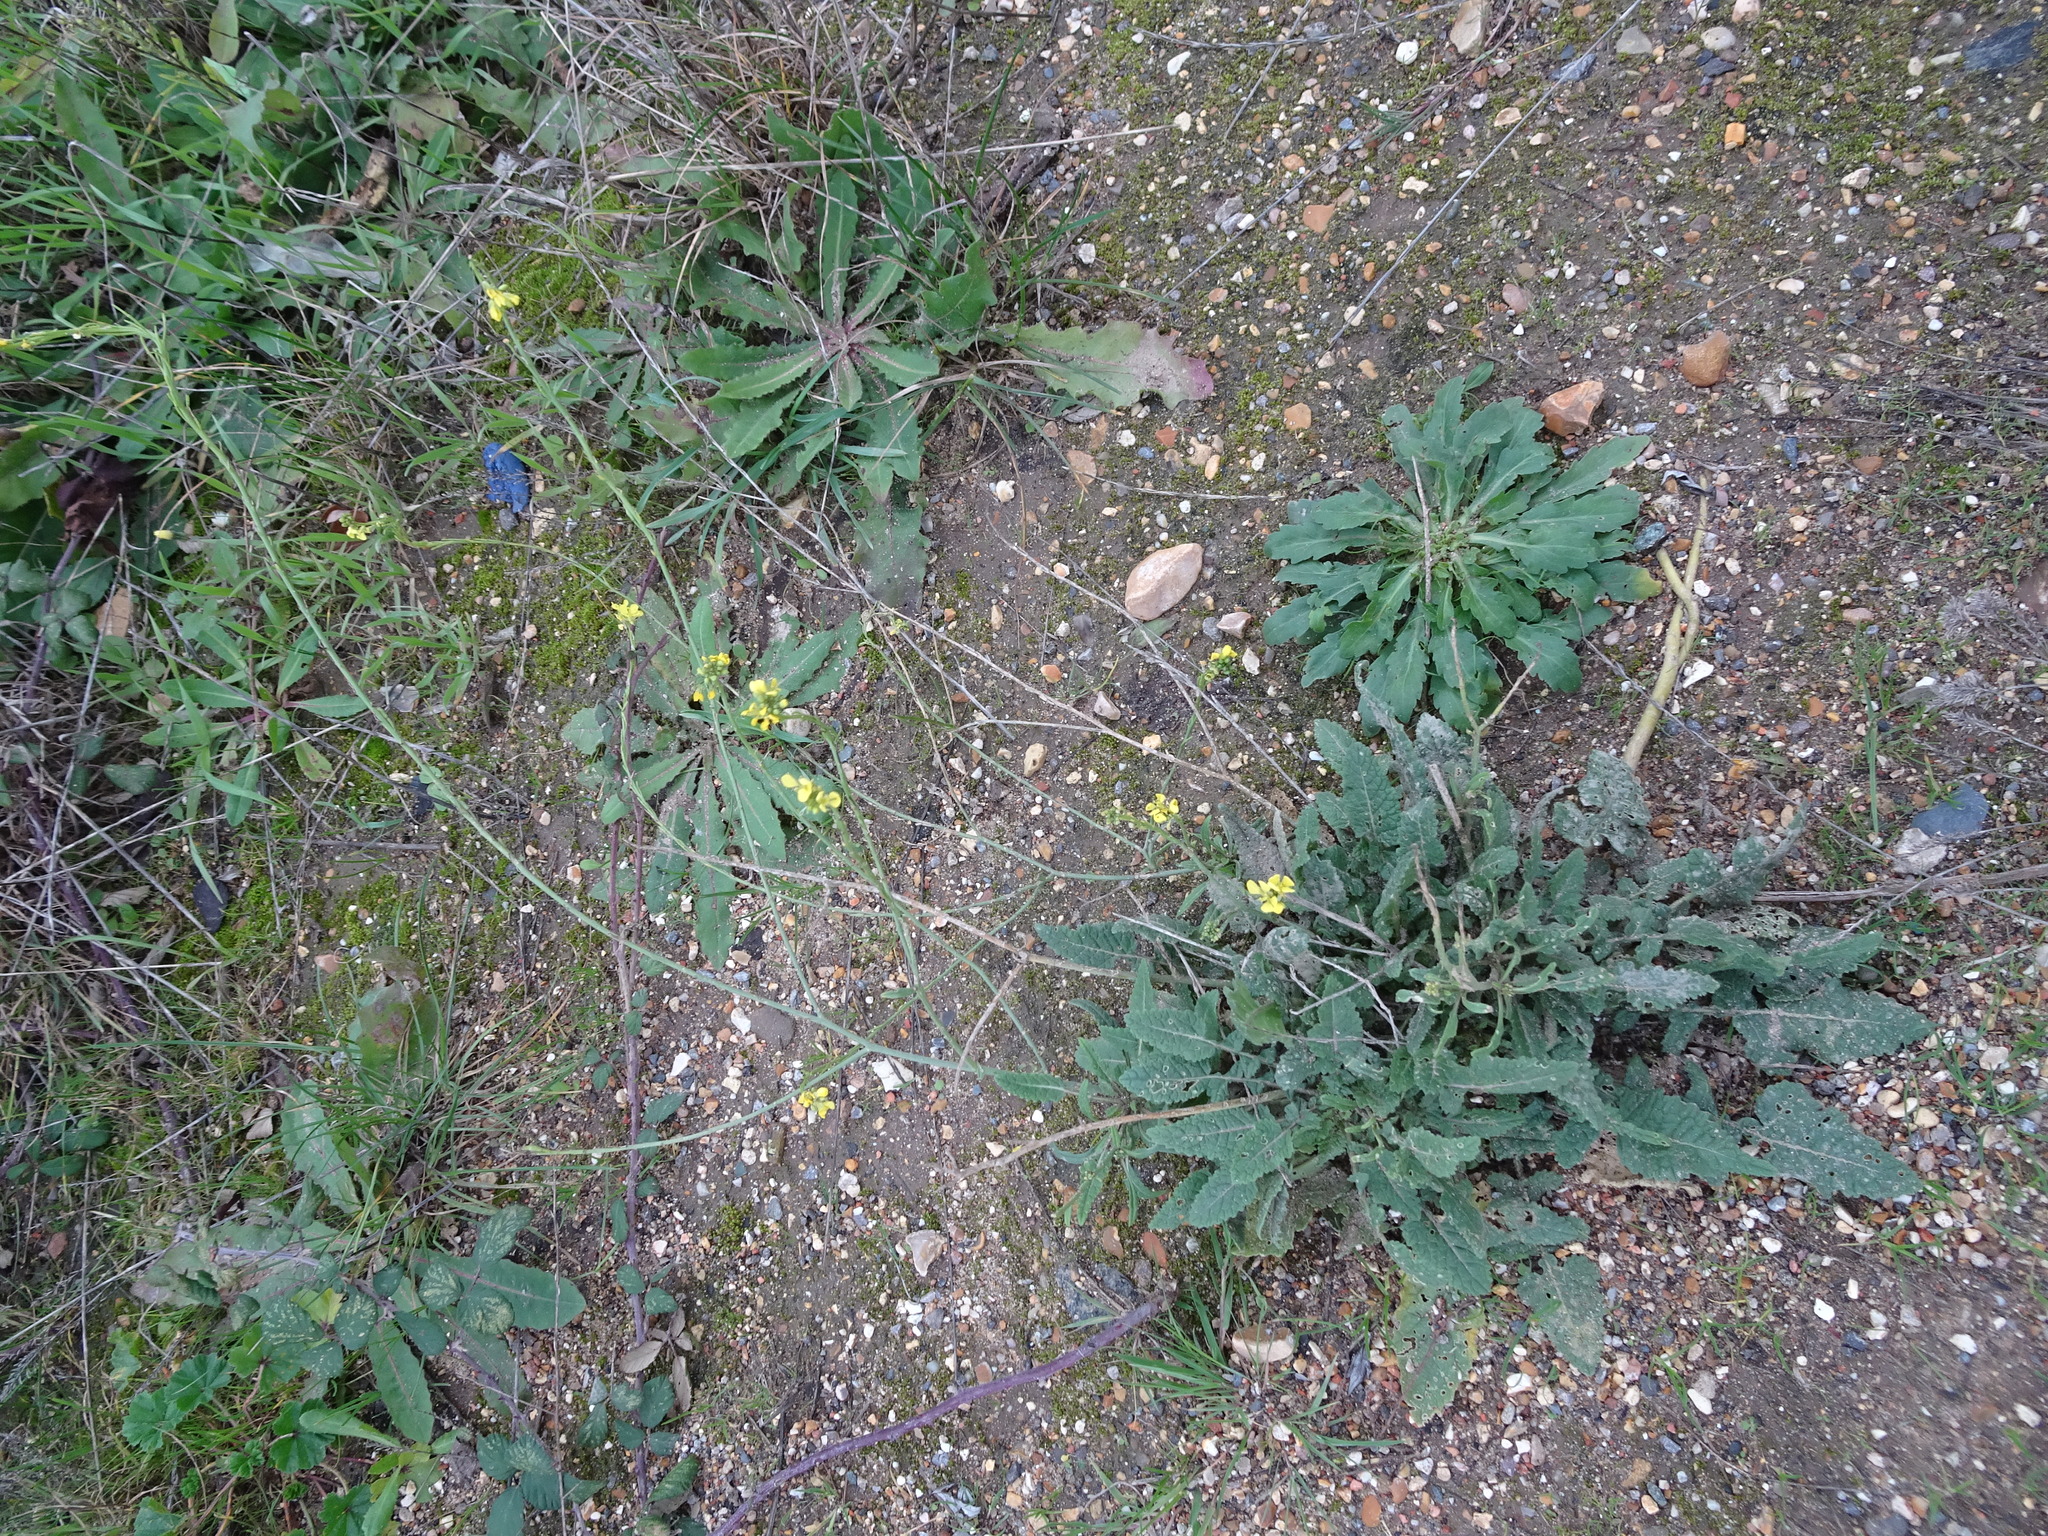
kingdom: Plantae
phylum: Tracheophyta
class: Magnoliopsida
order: Brassicales
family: Brassicaceae
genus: Hirschfeldia
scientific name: Hirschfeldia incana
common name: Hoary mustard
